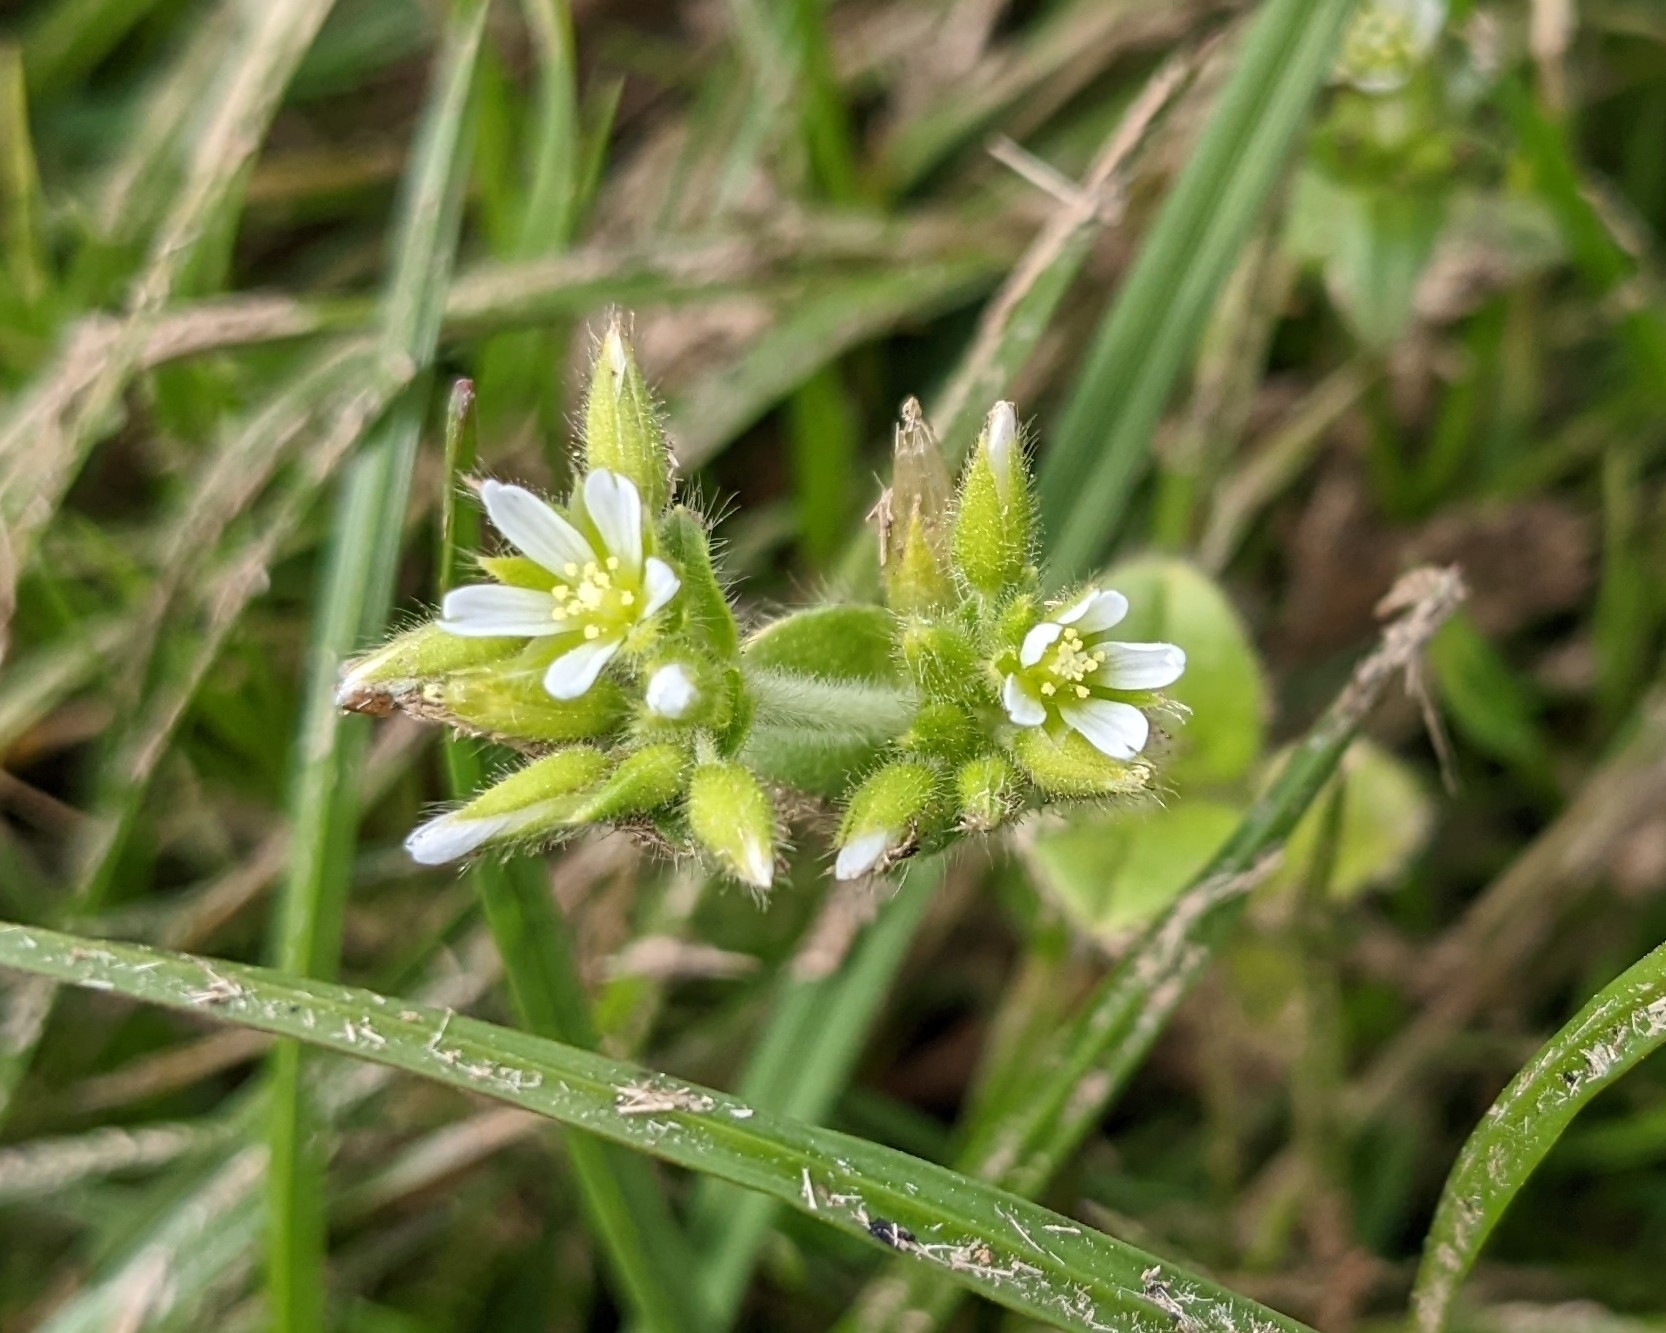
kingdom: Plantae
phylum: Tracheophyta
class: Magnoliopsida
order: Caryophyllales
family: Caryophyllaceae
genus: Cerastium
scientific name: Cerastium glomeratum
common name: Sticky chickweed
